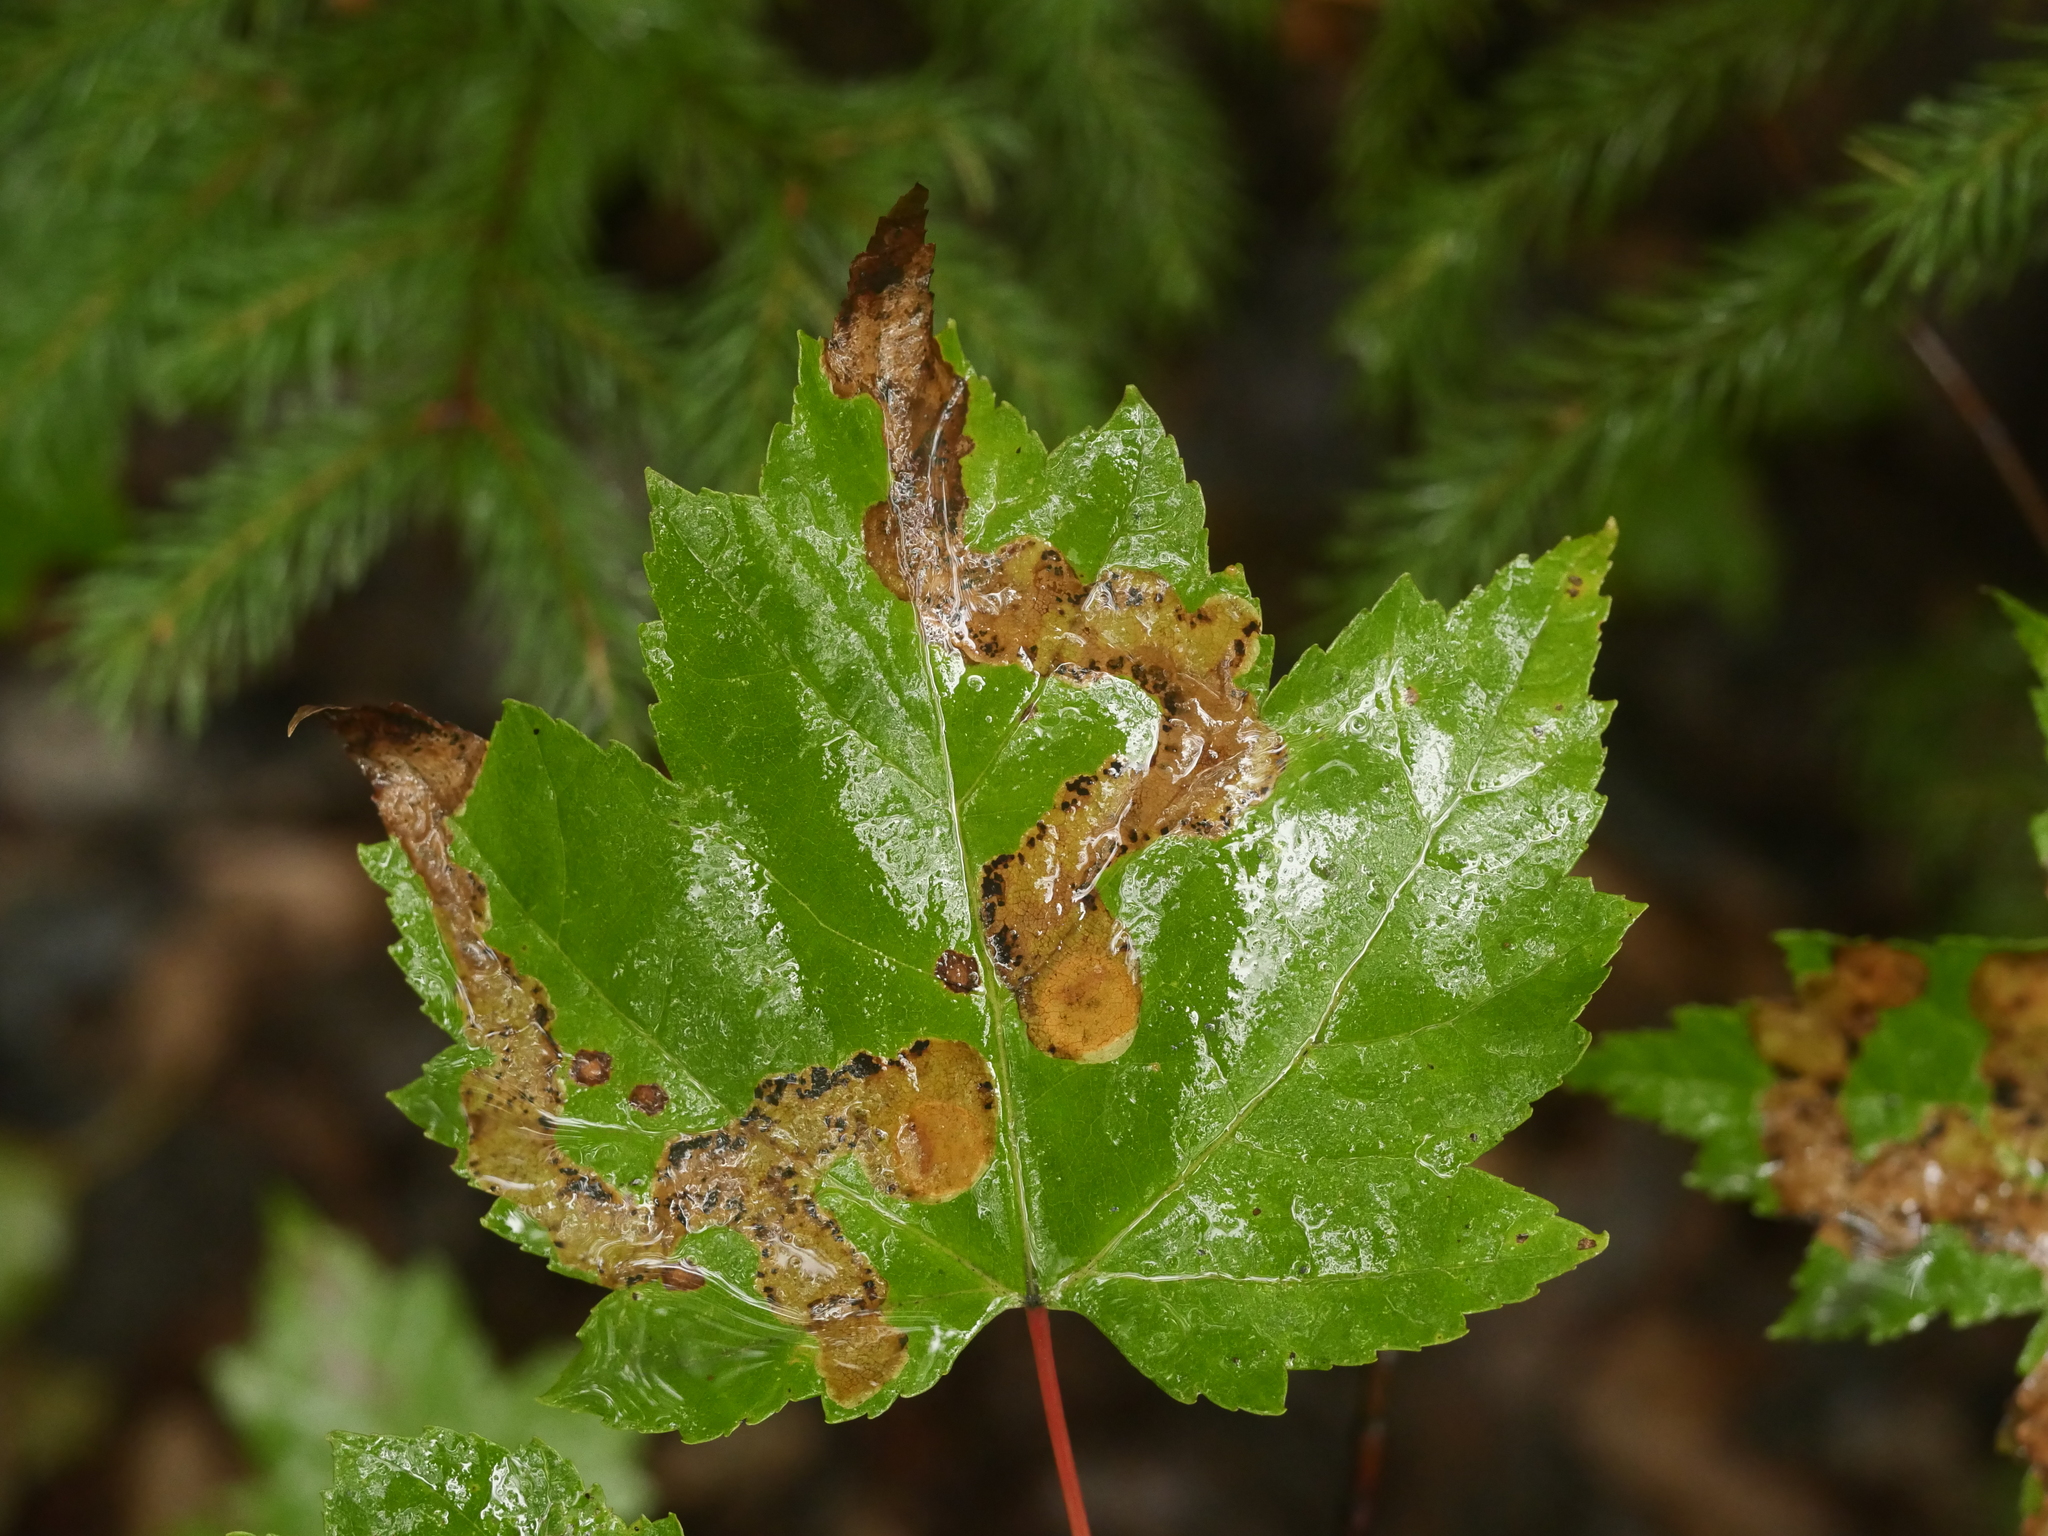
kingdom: Animalia
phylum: Arthropoda
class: Insecta
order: Lepidoptera
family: Gracillariidae
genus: Cameraria
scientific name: Cameraria aceriella
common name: Maple leafblotch miner
